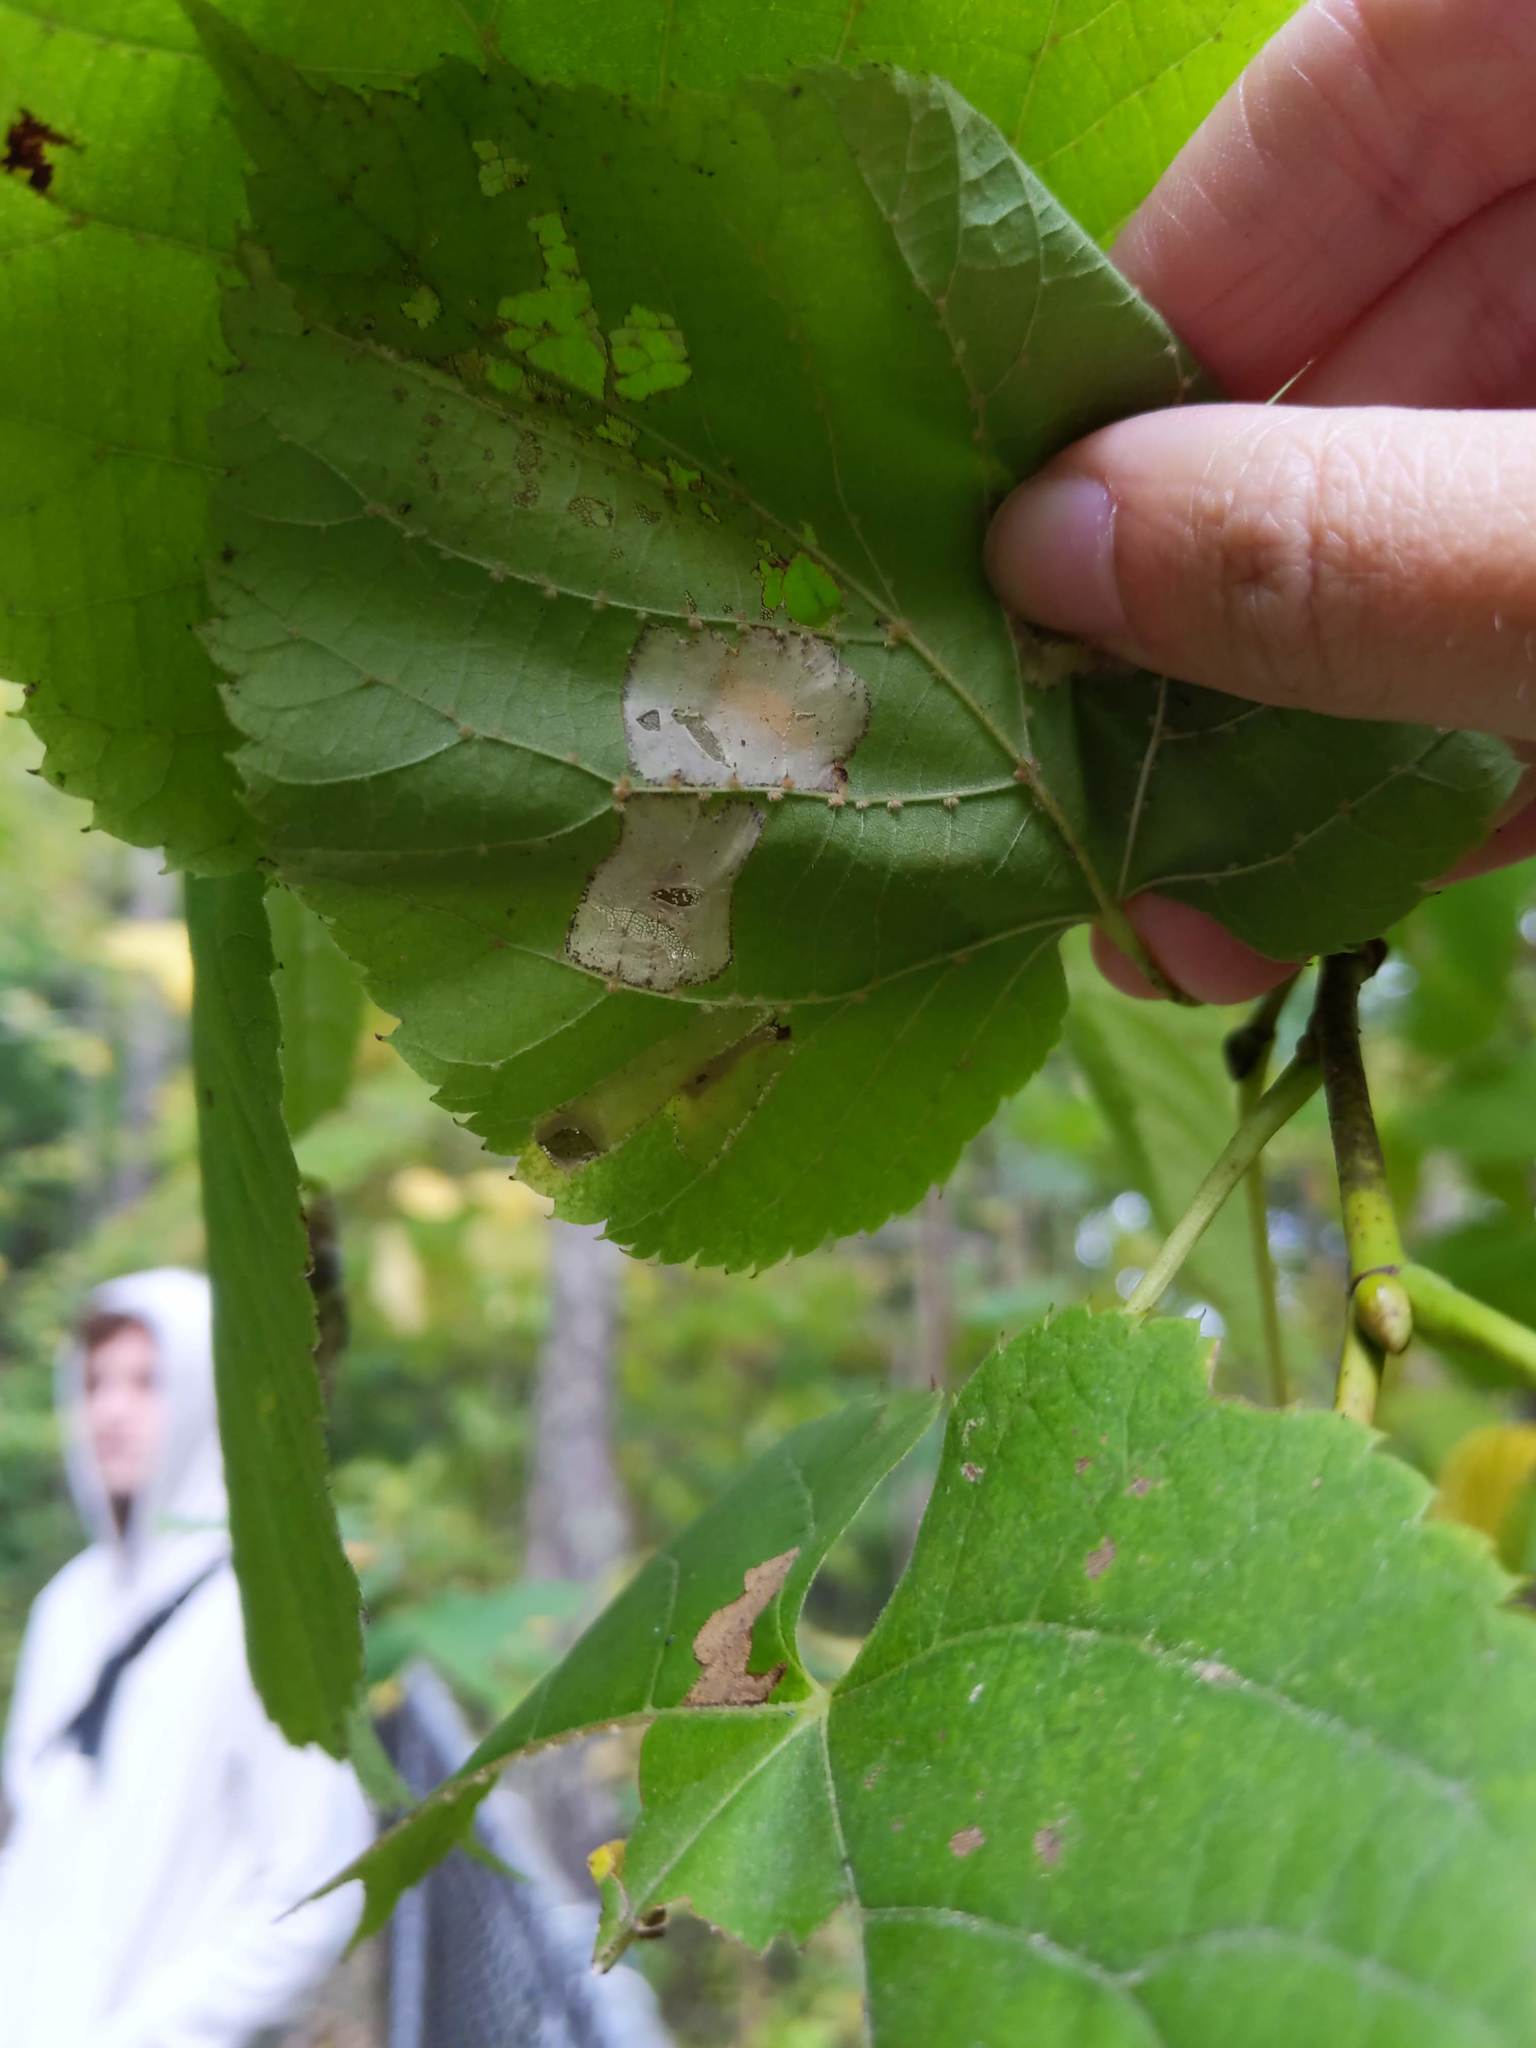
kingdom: Animalia
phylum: Arthropoda
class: Insecta
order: Lepidoptera
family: Gracillariidae
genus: Phyllonorycter
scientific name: Phyllonorycter lucetiella
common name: Basswood miner moth
